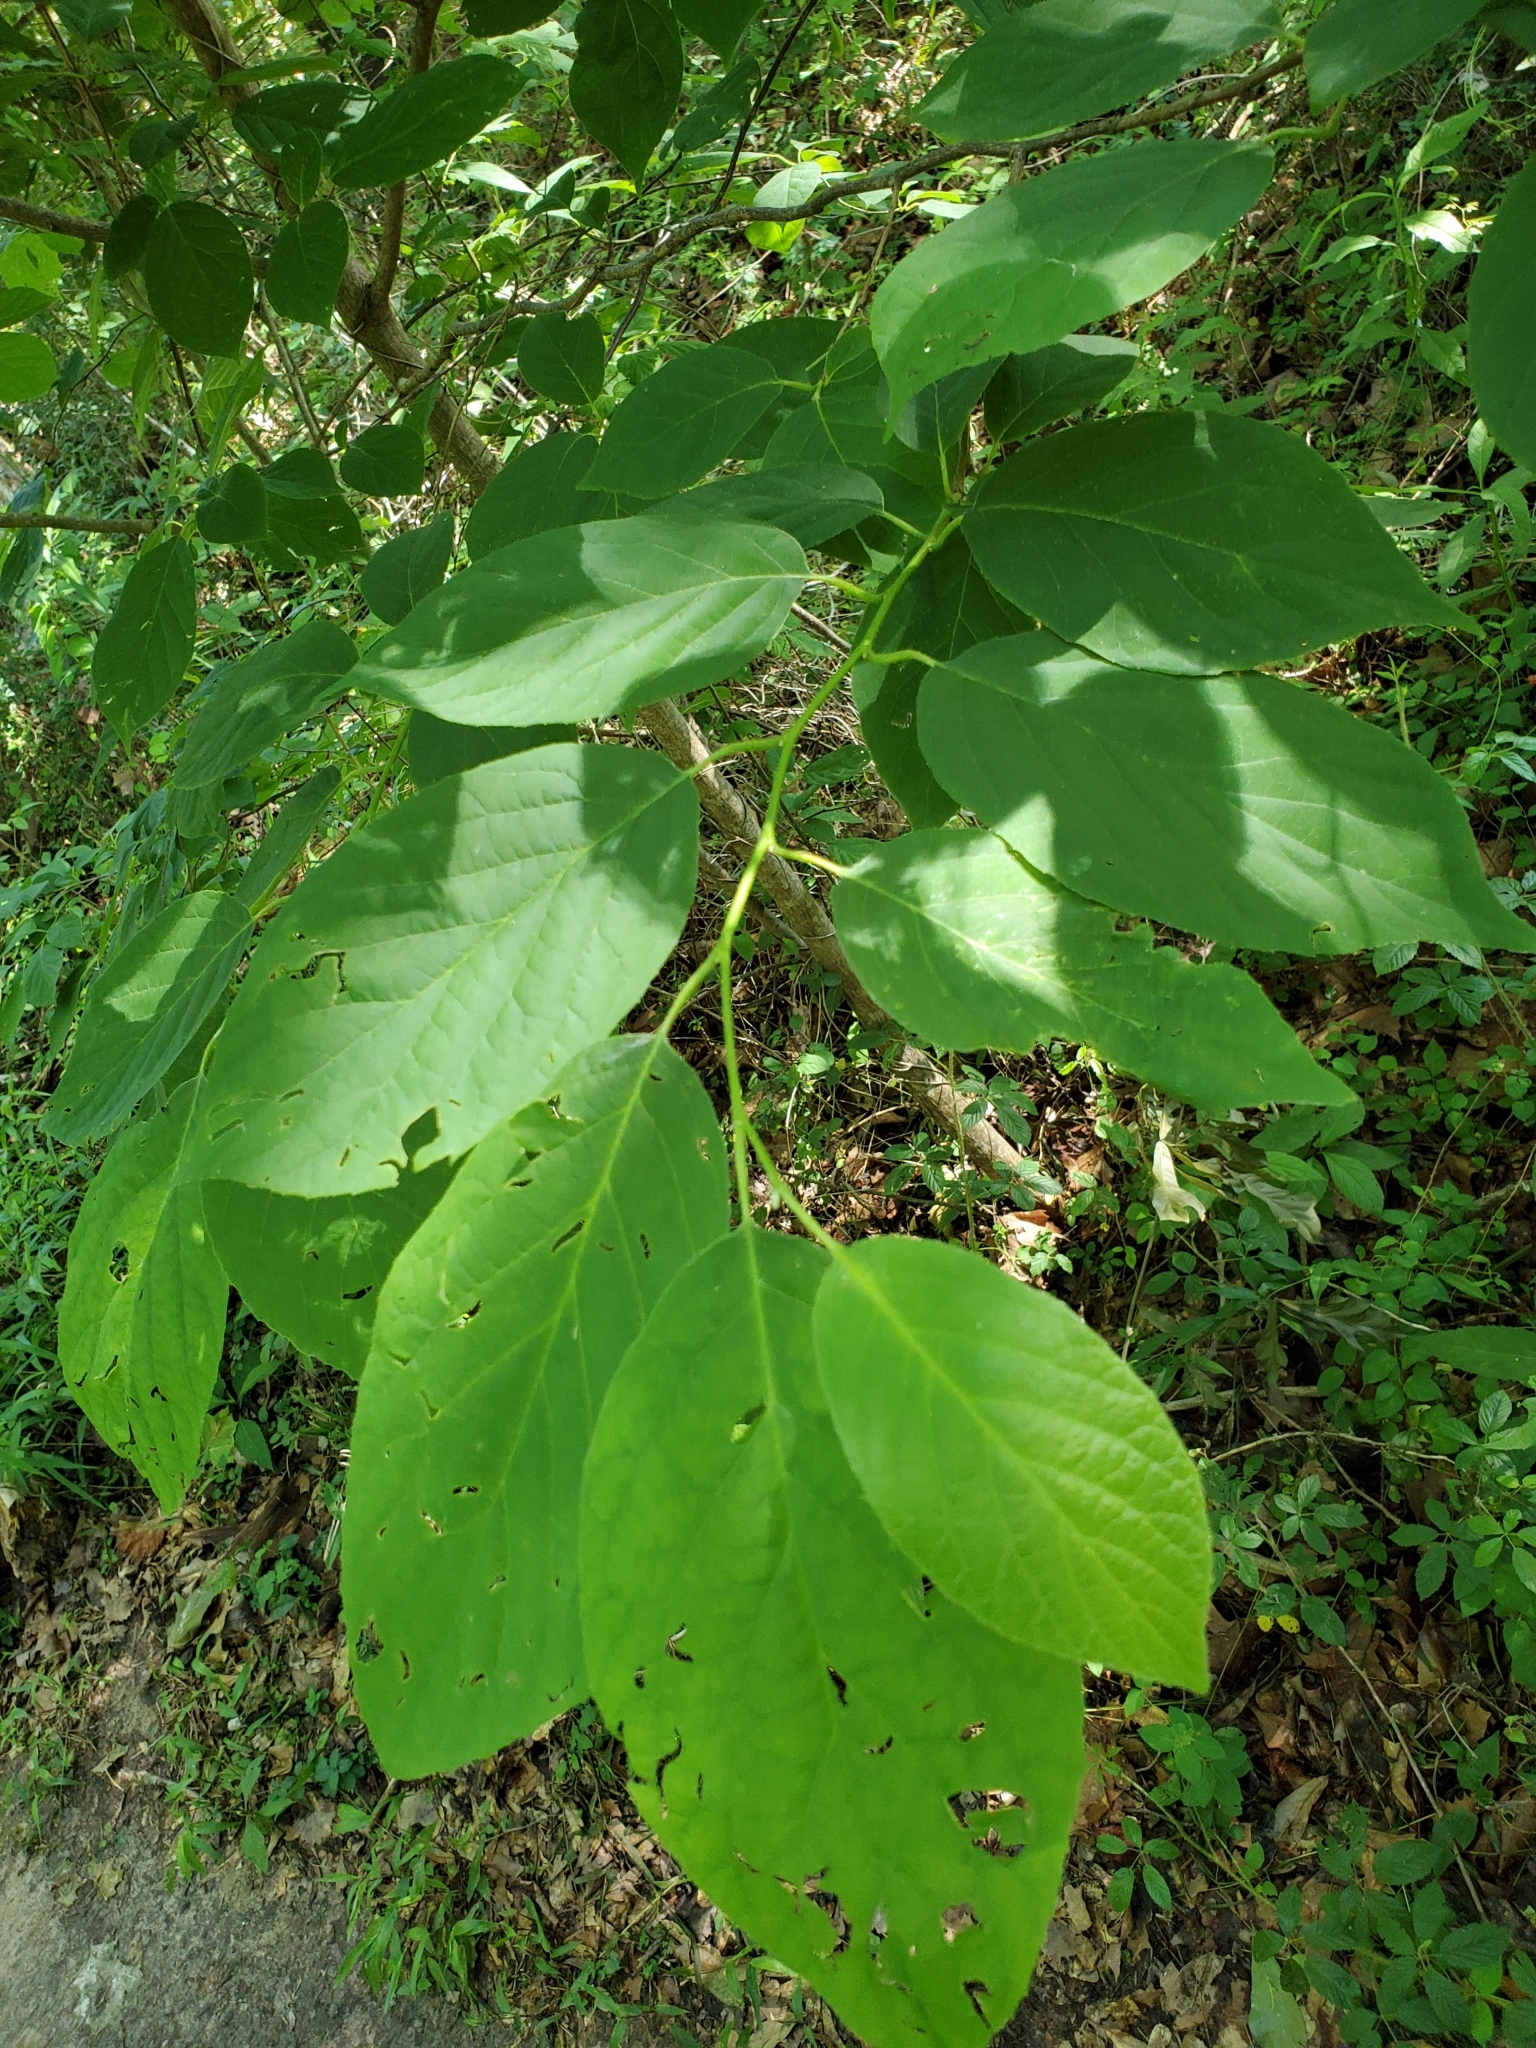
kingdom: Plantae
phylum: Tracheophyta
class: Magnoliopsida
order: Ericales
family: Styracaceae
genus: Halesia
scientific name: Halesia diptera
